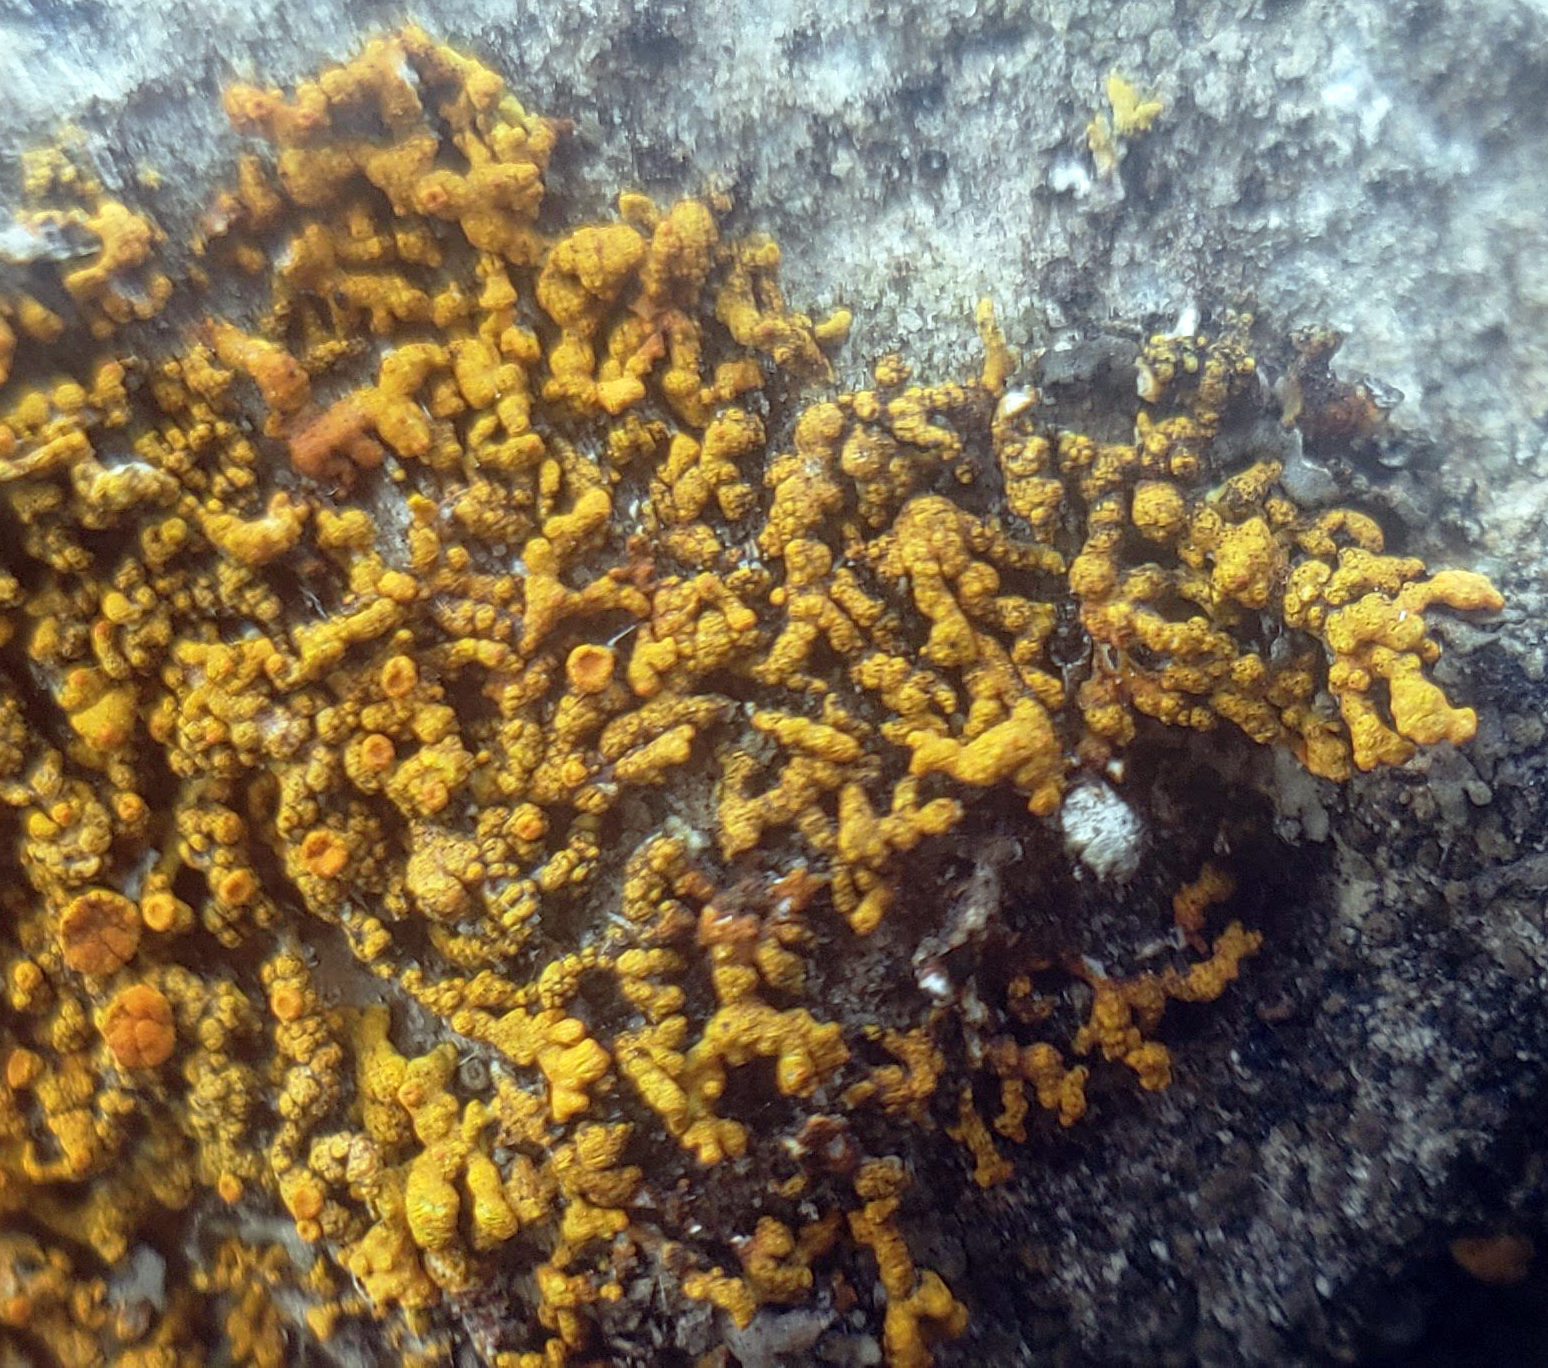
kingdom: Fungi
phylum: Ascomycota
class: Lecanoromycetes
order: Teloschistales
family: Teloschistaceae
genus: Xanthoria
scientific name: Xanthoria elegans
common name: Elegant sunburst lichen
